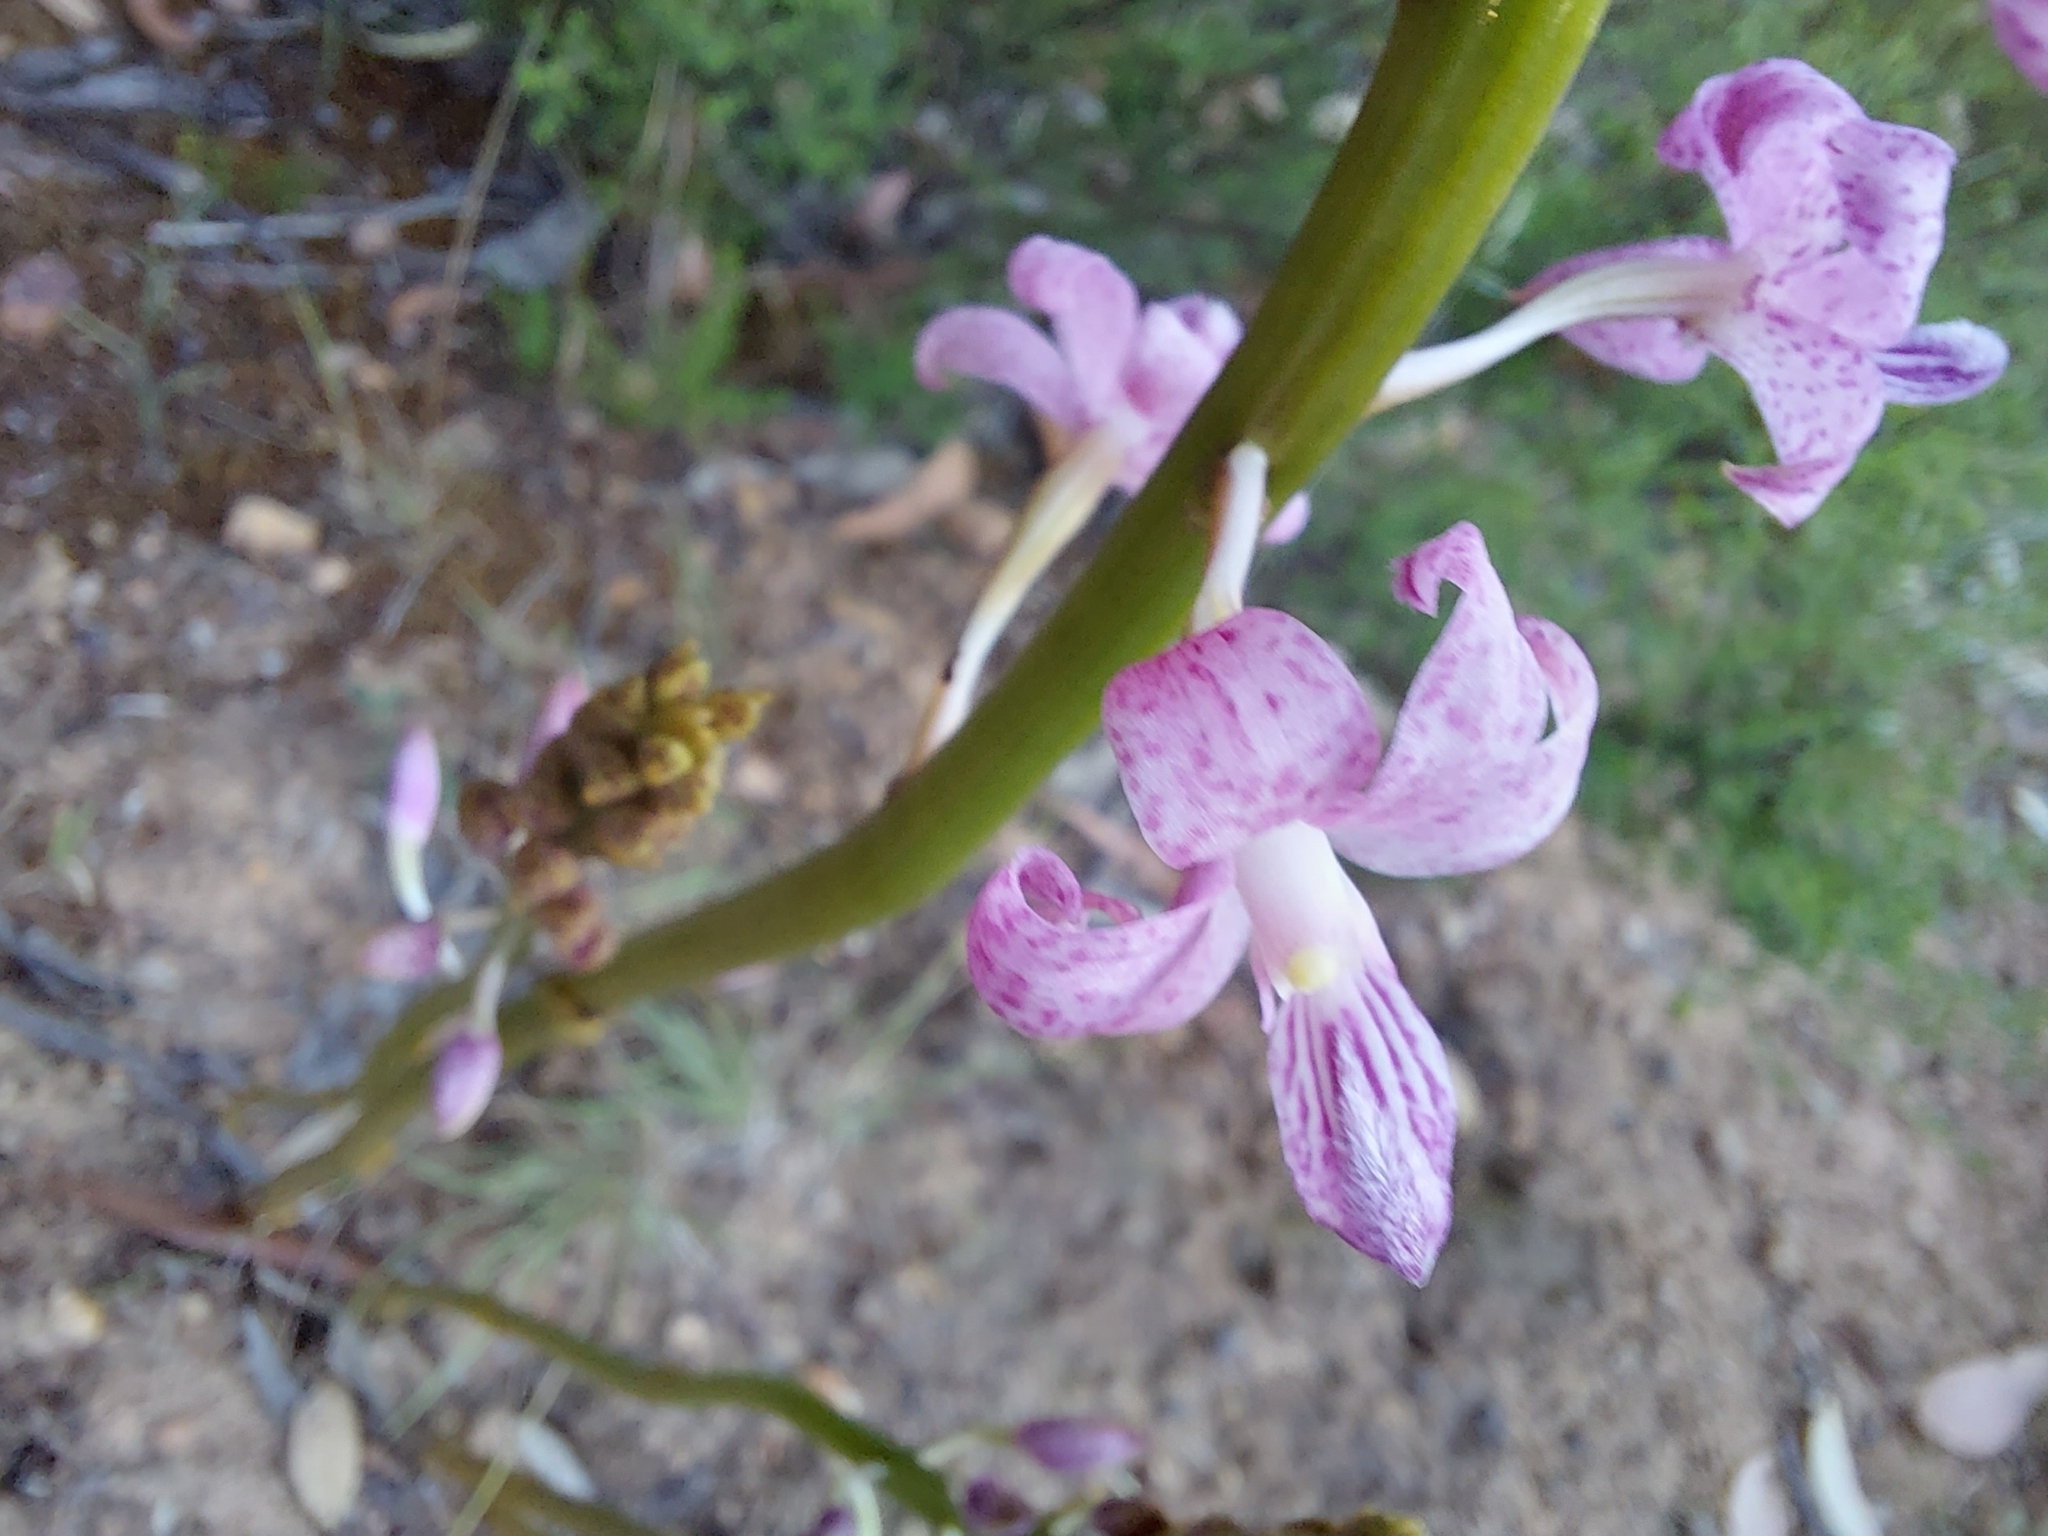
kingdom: Plantae
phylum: Tracheophyta
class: Liliopsida
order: Asparagales
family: Orchidaceae
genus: Dipodium
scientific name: Dipodium roseum
